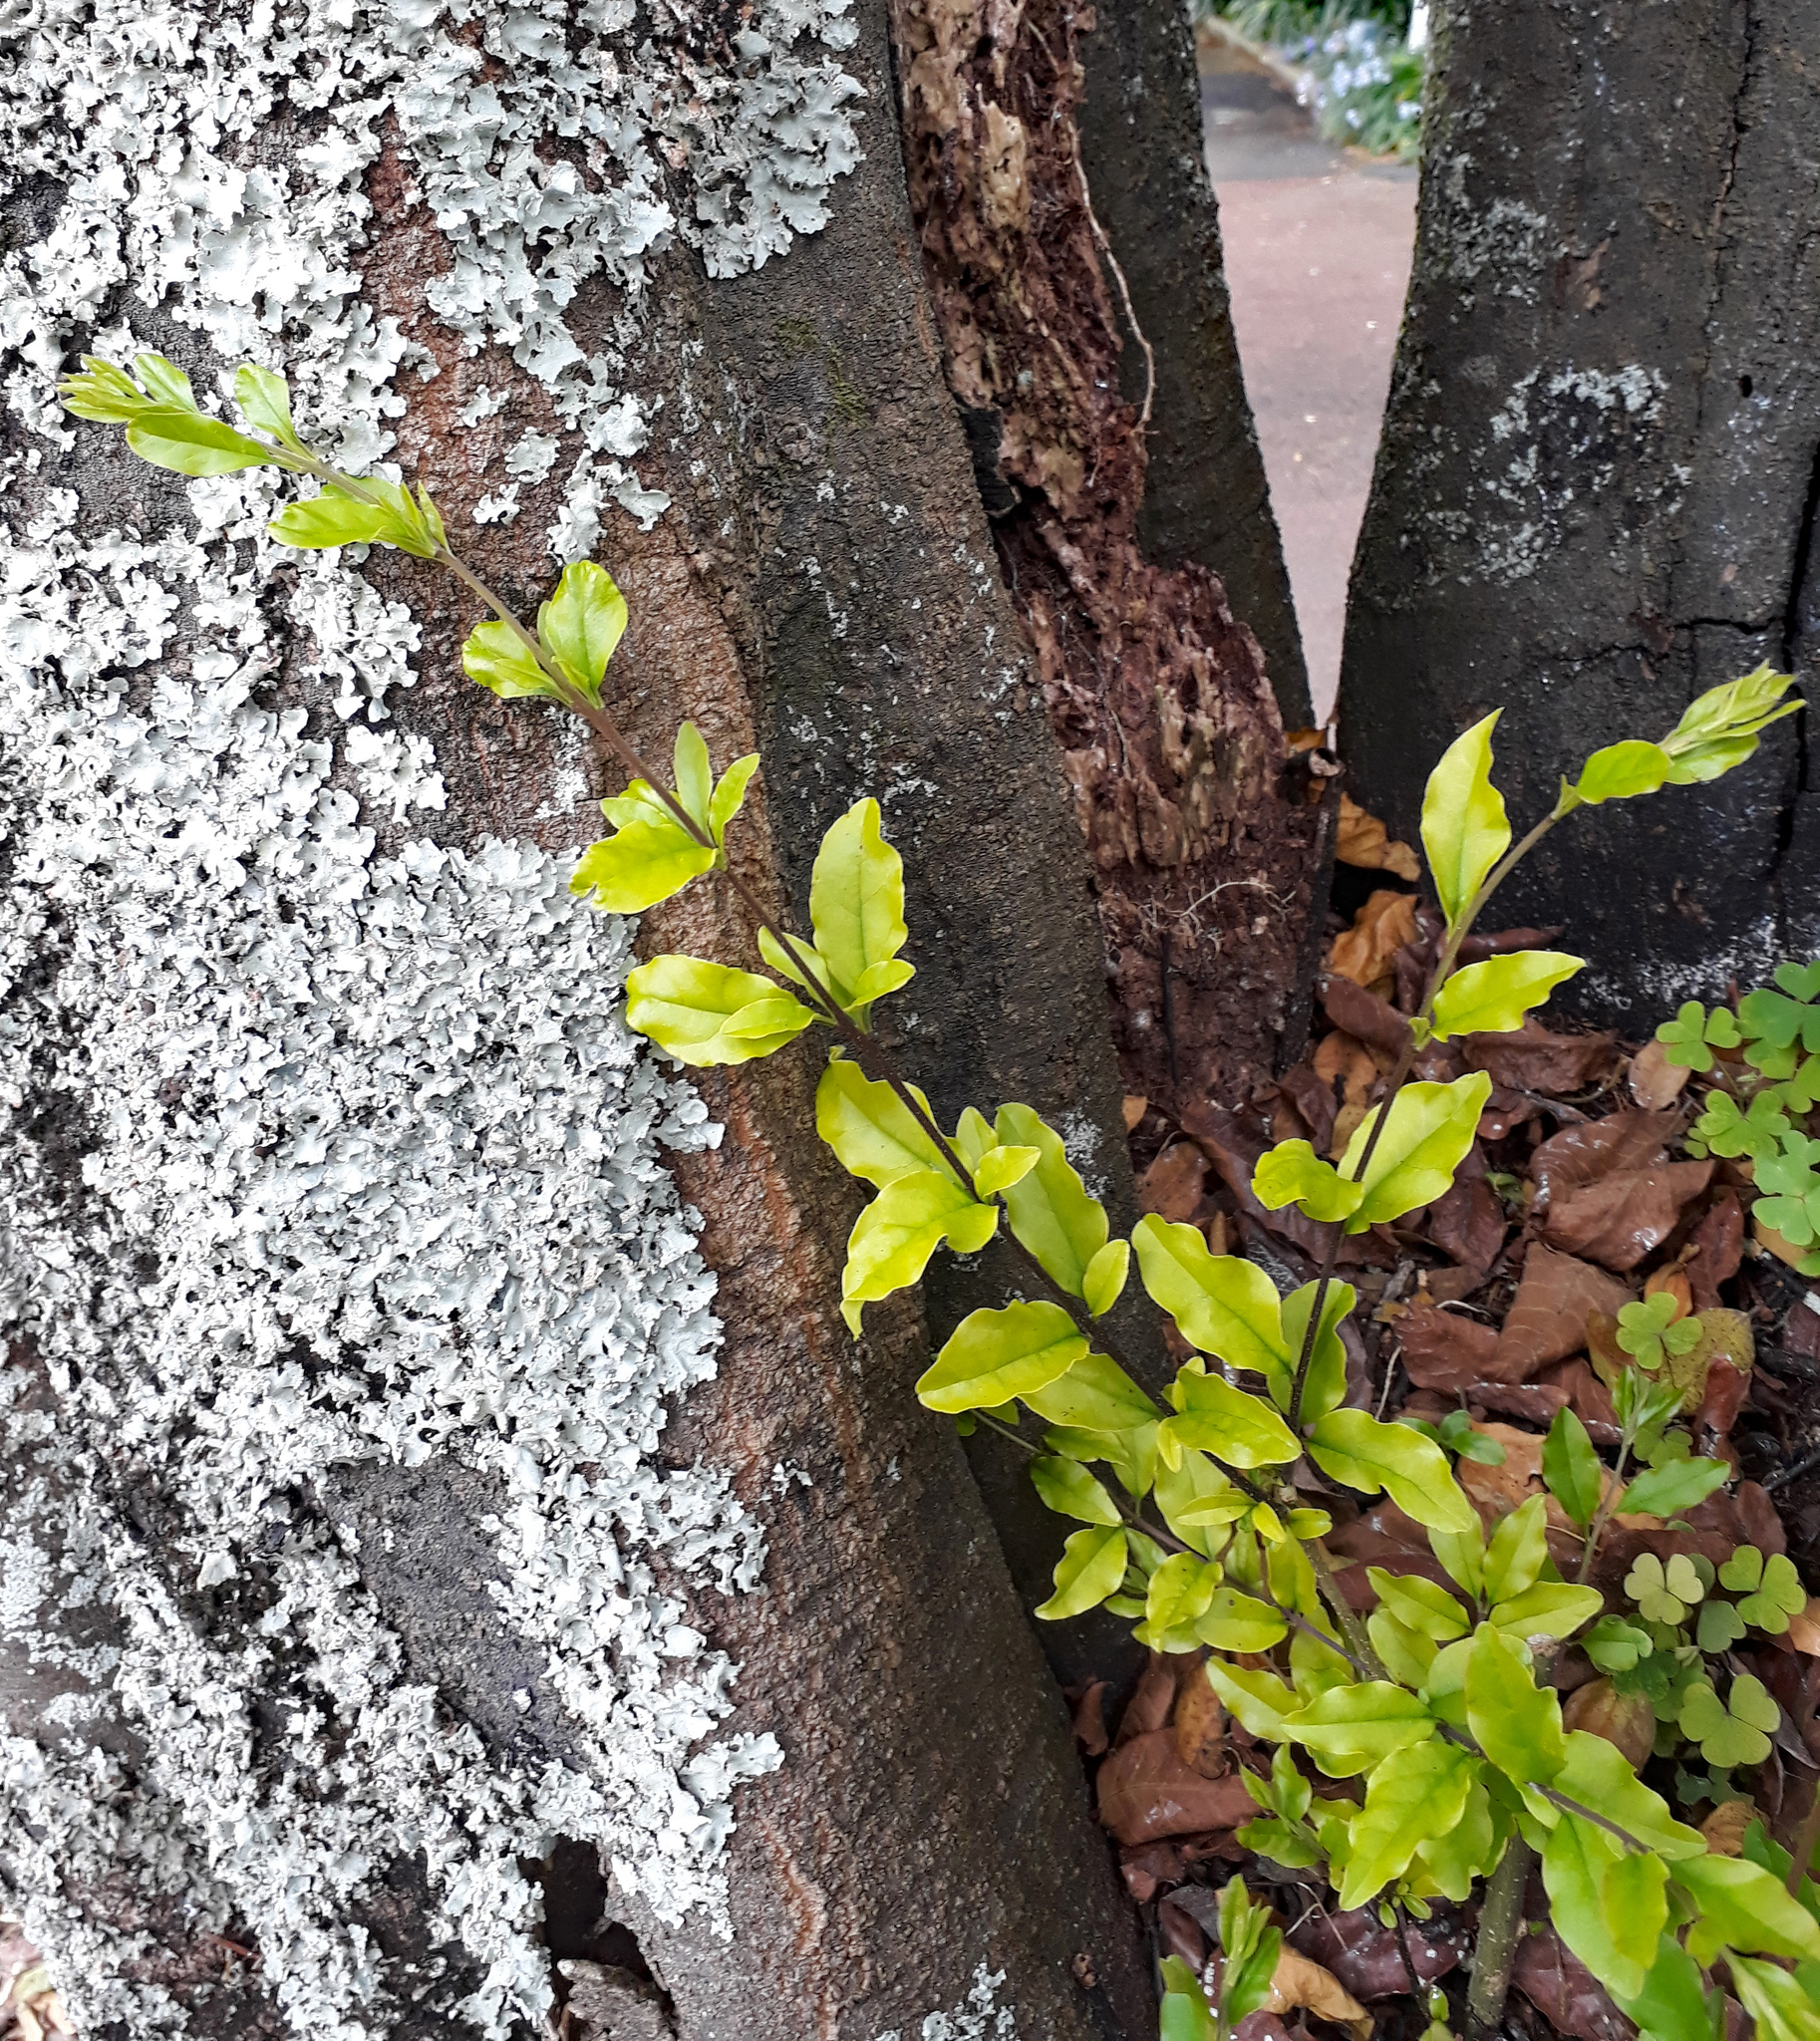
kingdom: Plantae
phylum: Tracheophyta
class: Magnoliopsida
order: Lamiales
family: Oleaceae
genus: Ligustrum
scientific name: Ligustrum sinense
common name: Chinese privet
